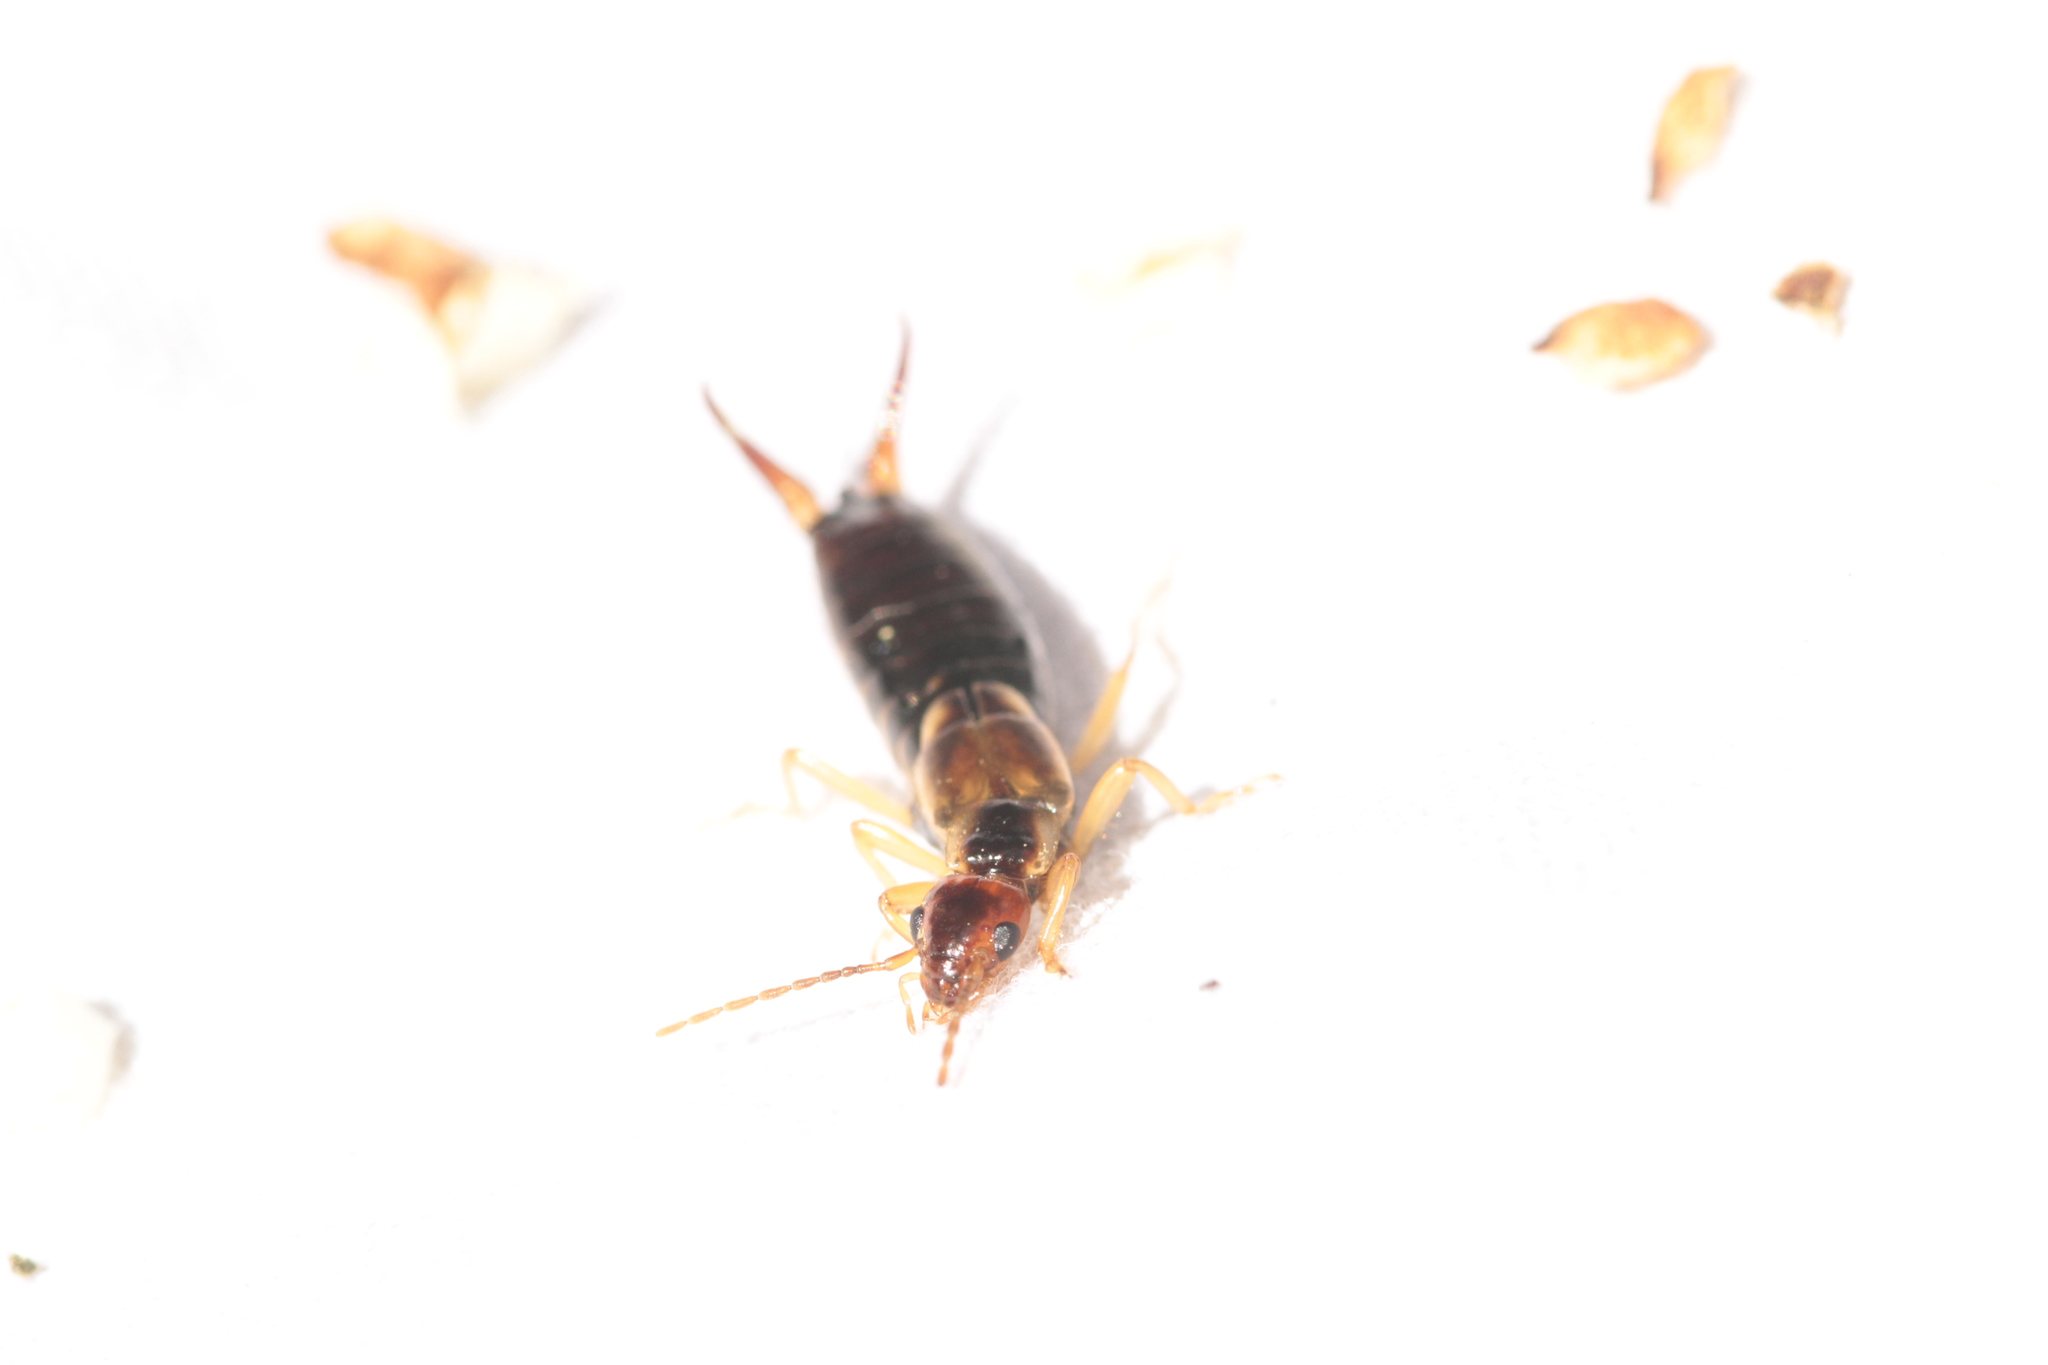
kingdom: Animalia
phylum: Arthropoda
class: Insecta
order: Dermaptera
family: Forficulidae
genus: Forficula
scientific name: Forficula
